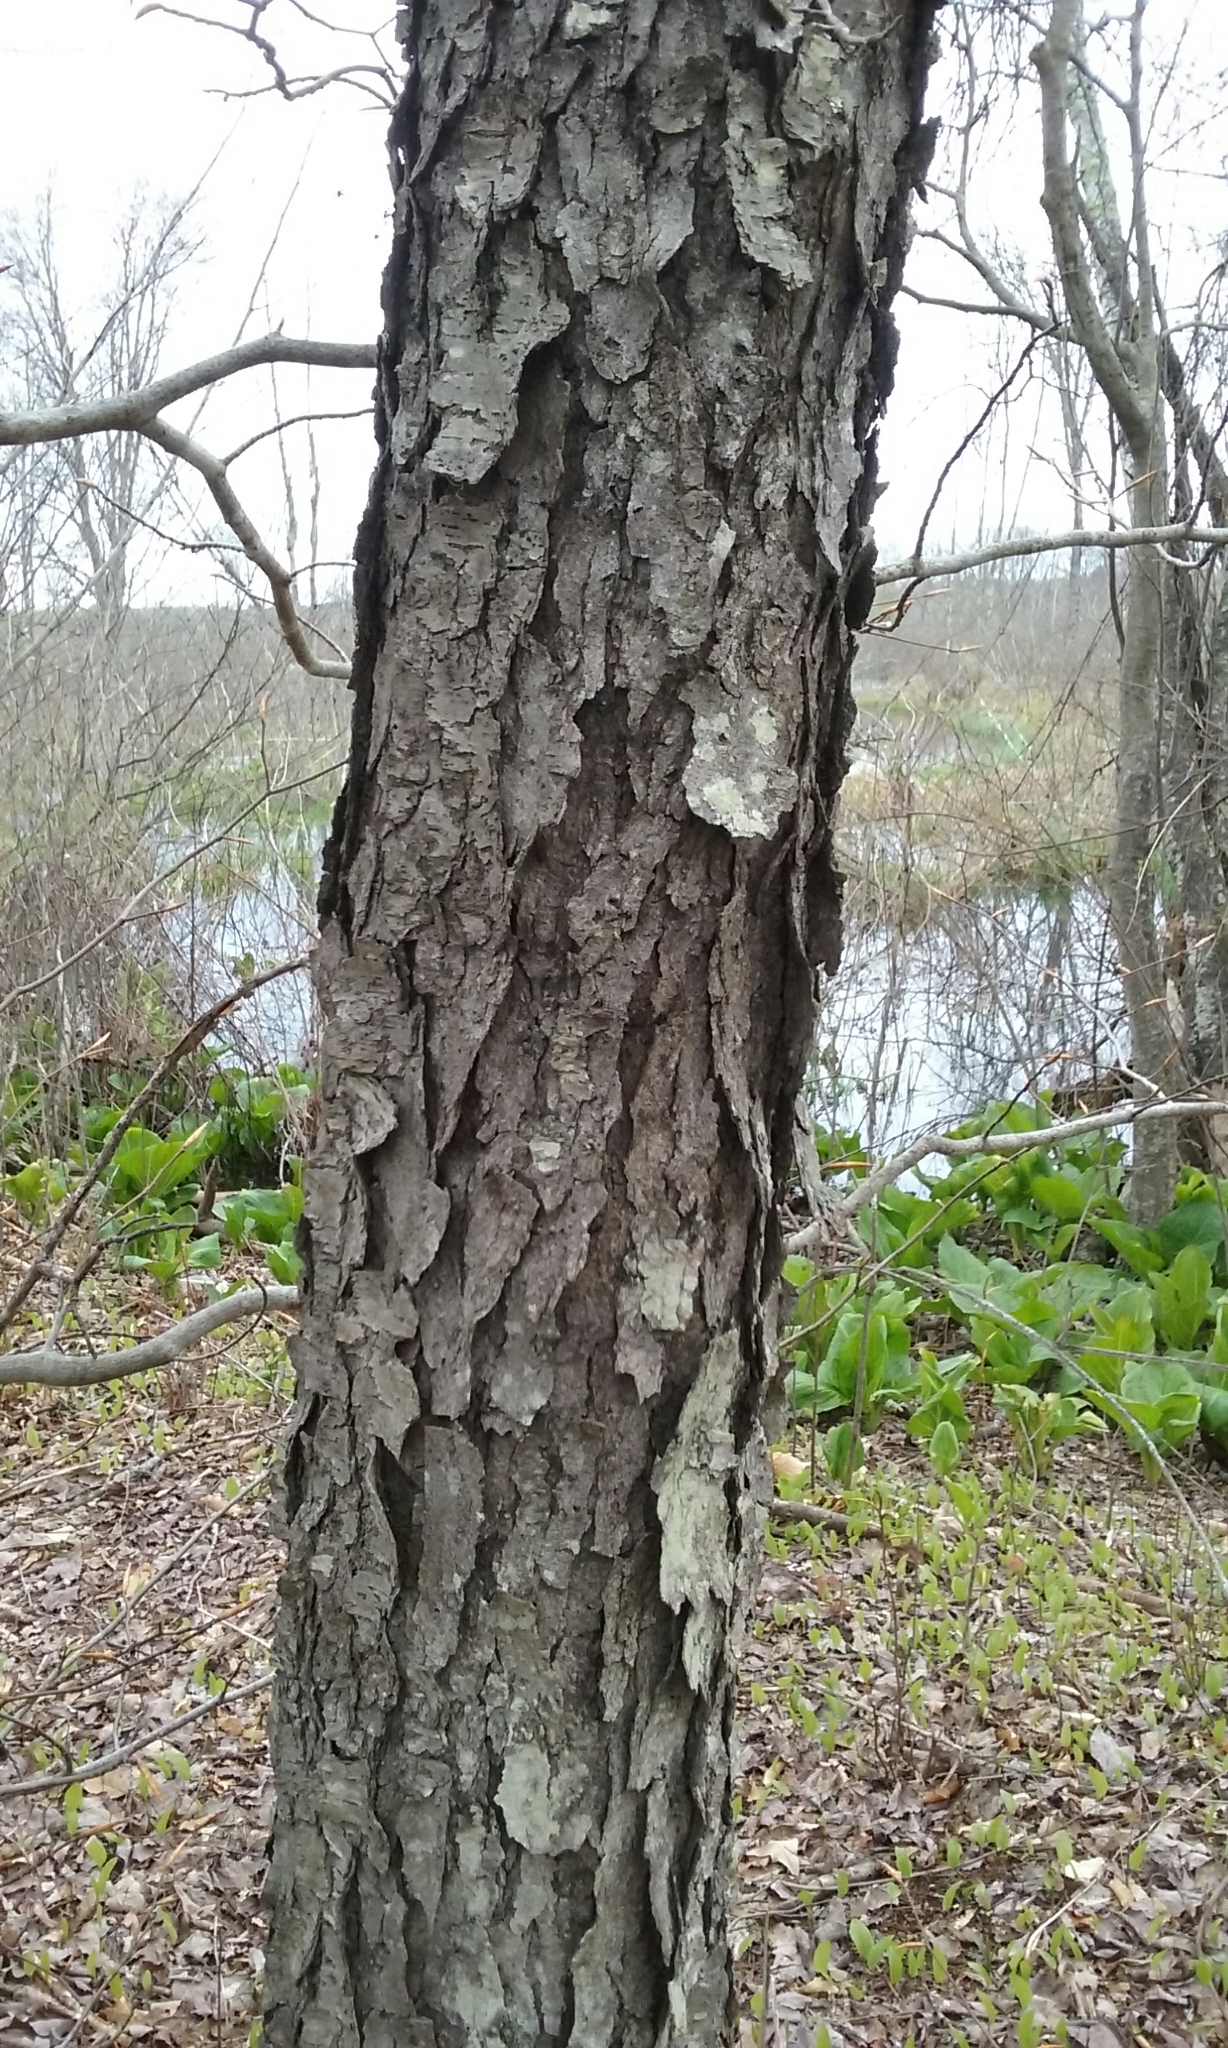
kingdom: Plantae
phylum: Tracheophyta
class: Magnoliopsida
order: Rosales
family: Rosaceae
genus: Prunus
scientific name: Prunus serotina
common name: Black cherry
